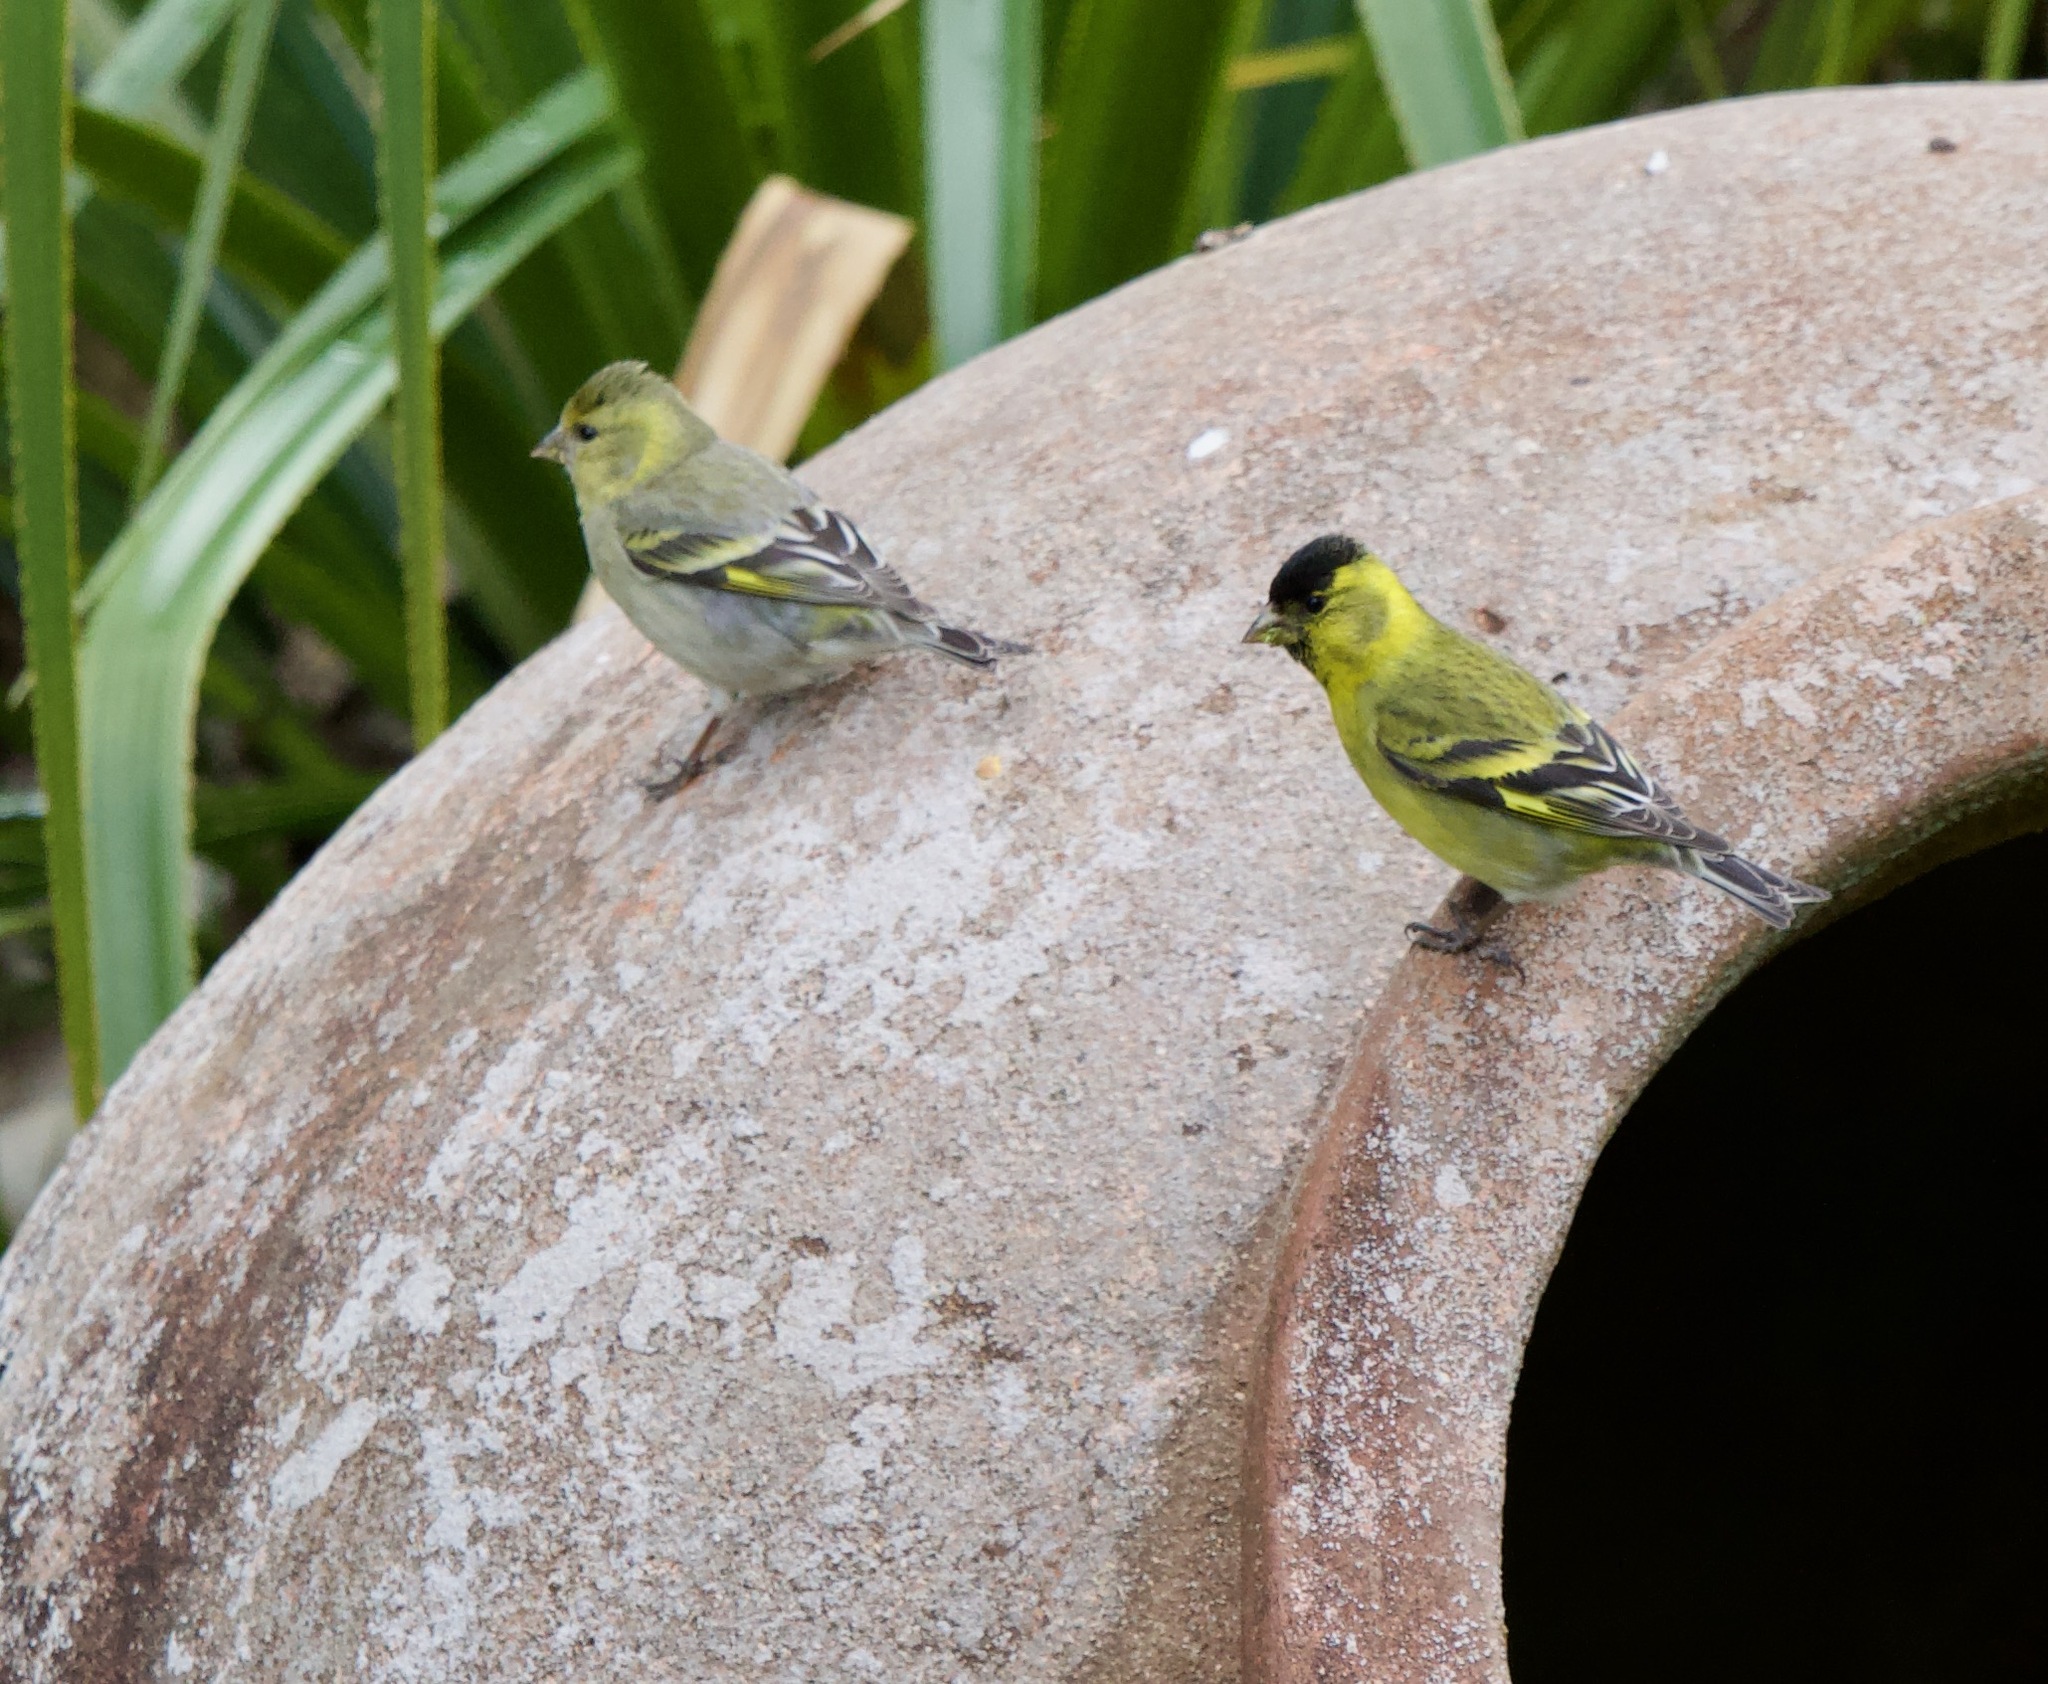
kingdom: Animalia
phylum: Chordata
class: Aves
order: Passeriformes
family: Fringillidae
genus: Spinus
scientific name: Spinus barbatus
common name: Black-chinned siskin
